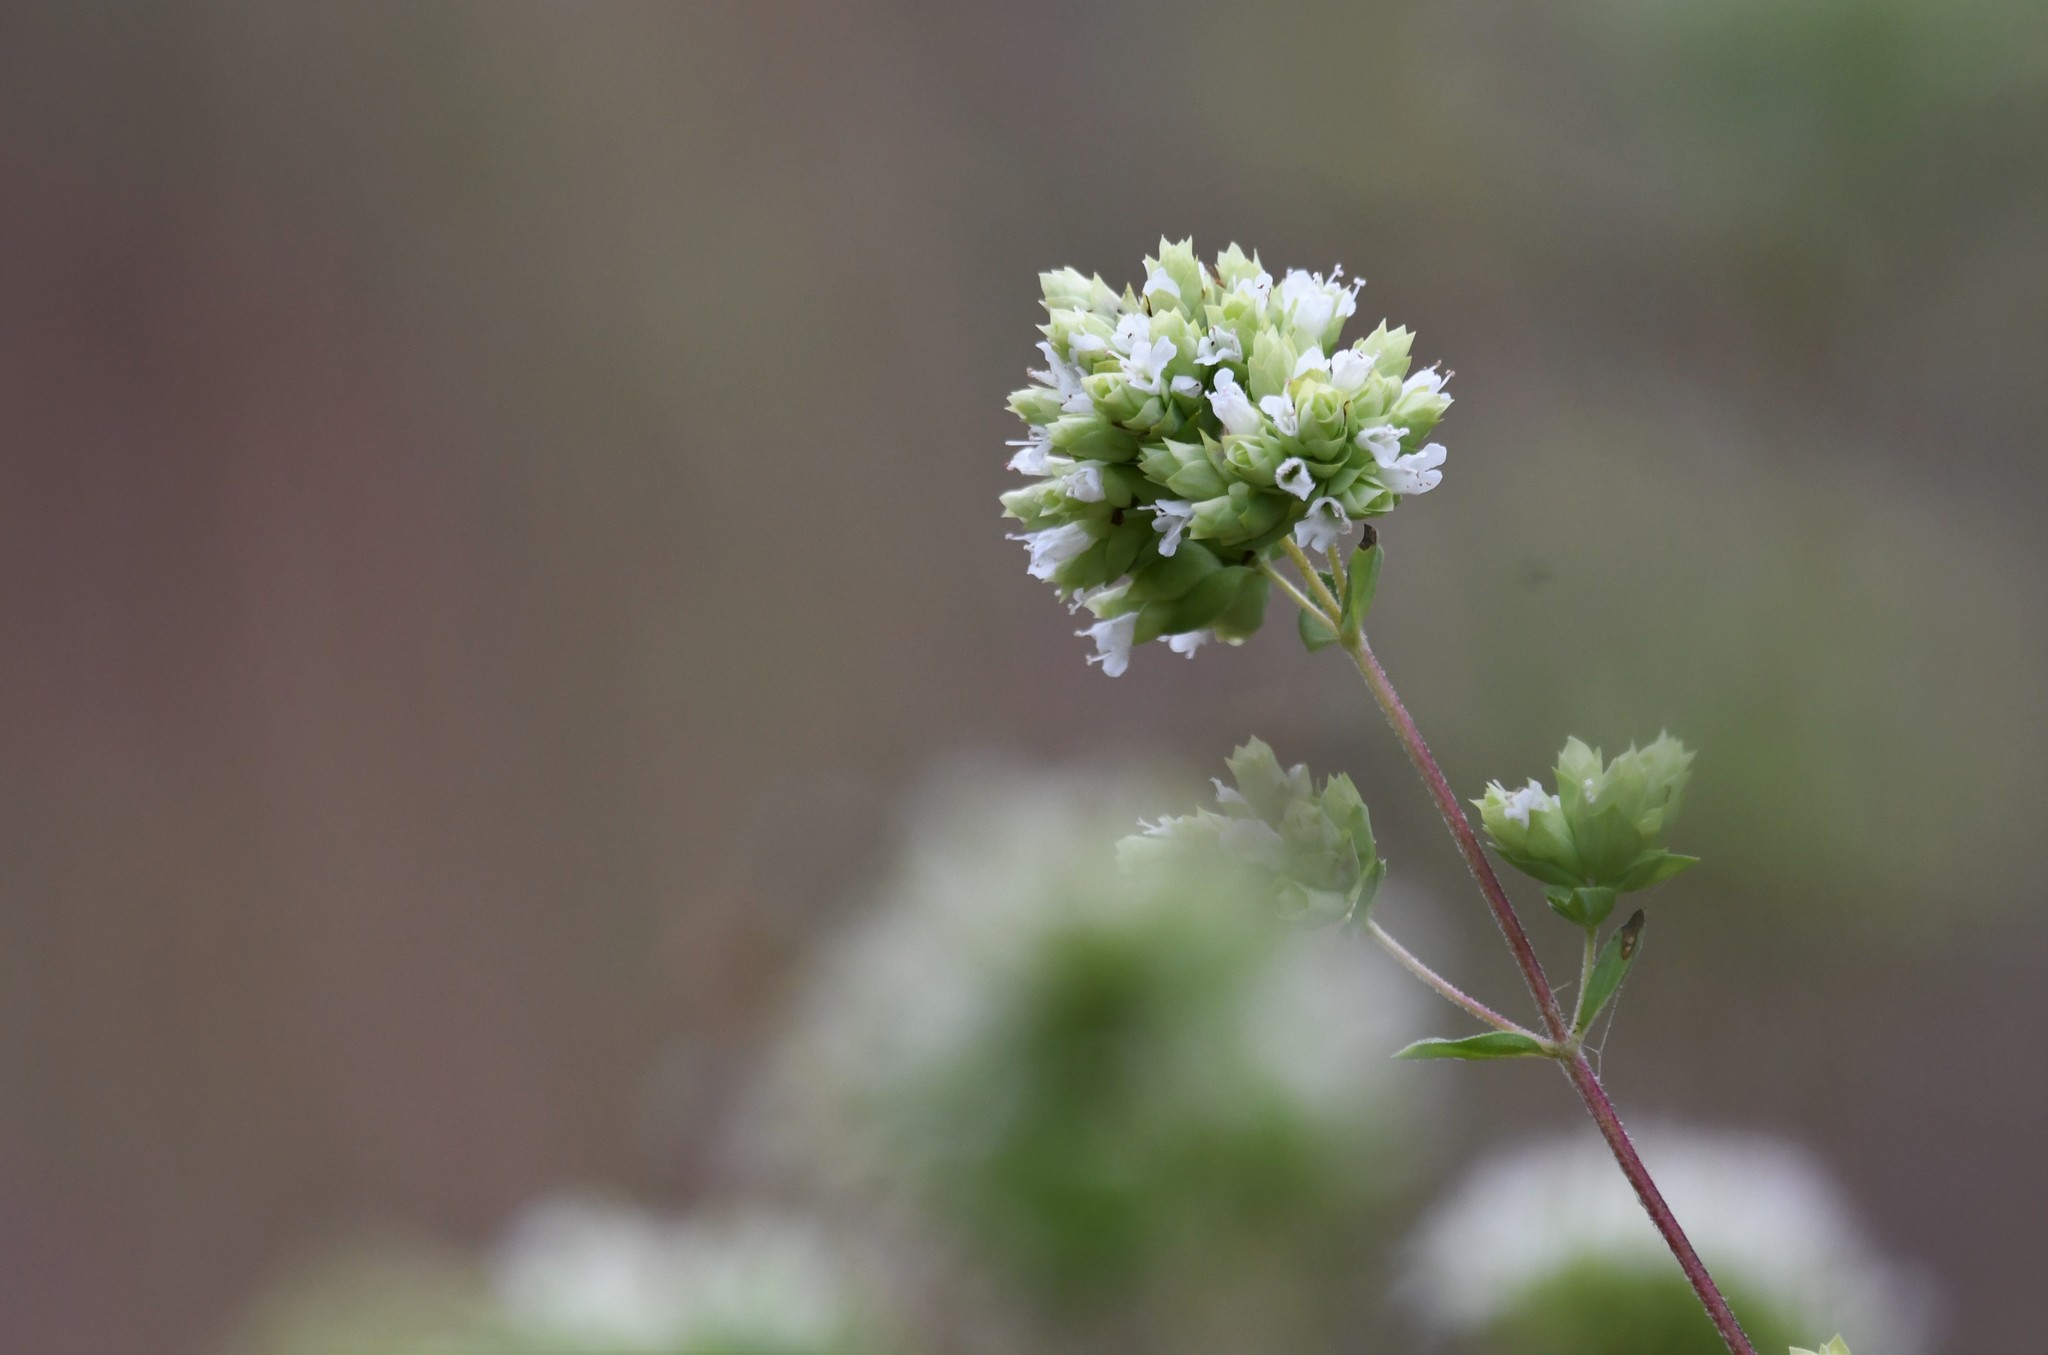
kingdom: Plantae
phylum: Tracheophyta
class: Magnoliopsida
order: Lamiales
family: Lamiaceae
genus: Origanum
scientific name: Origanum vulgare
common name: Wild marjoram
